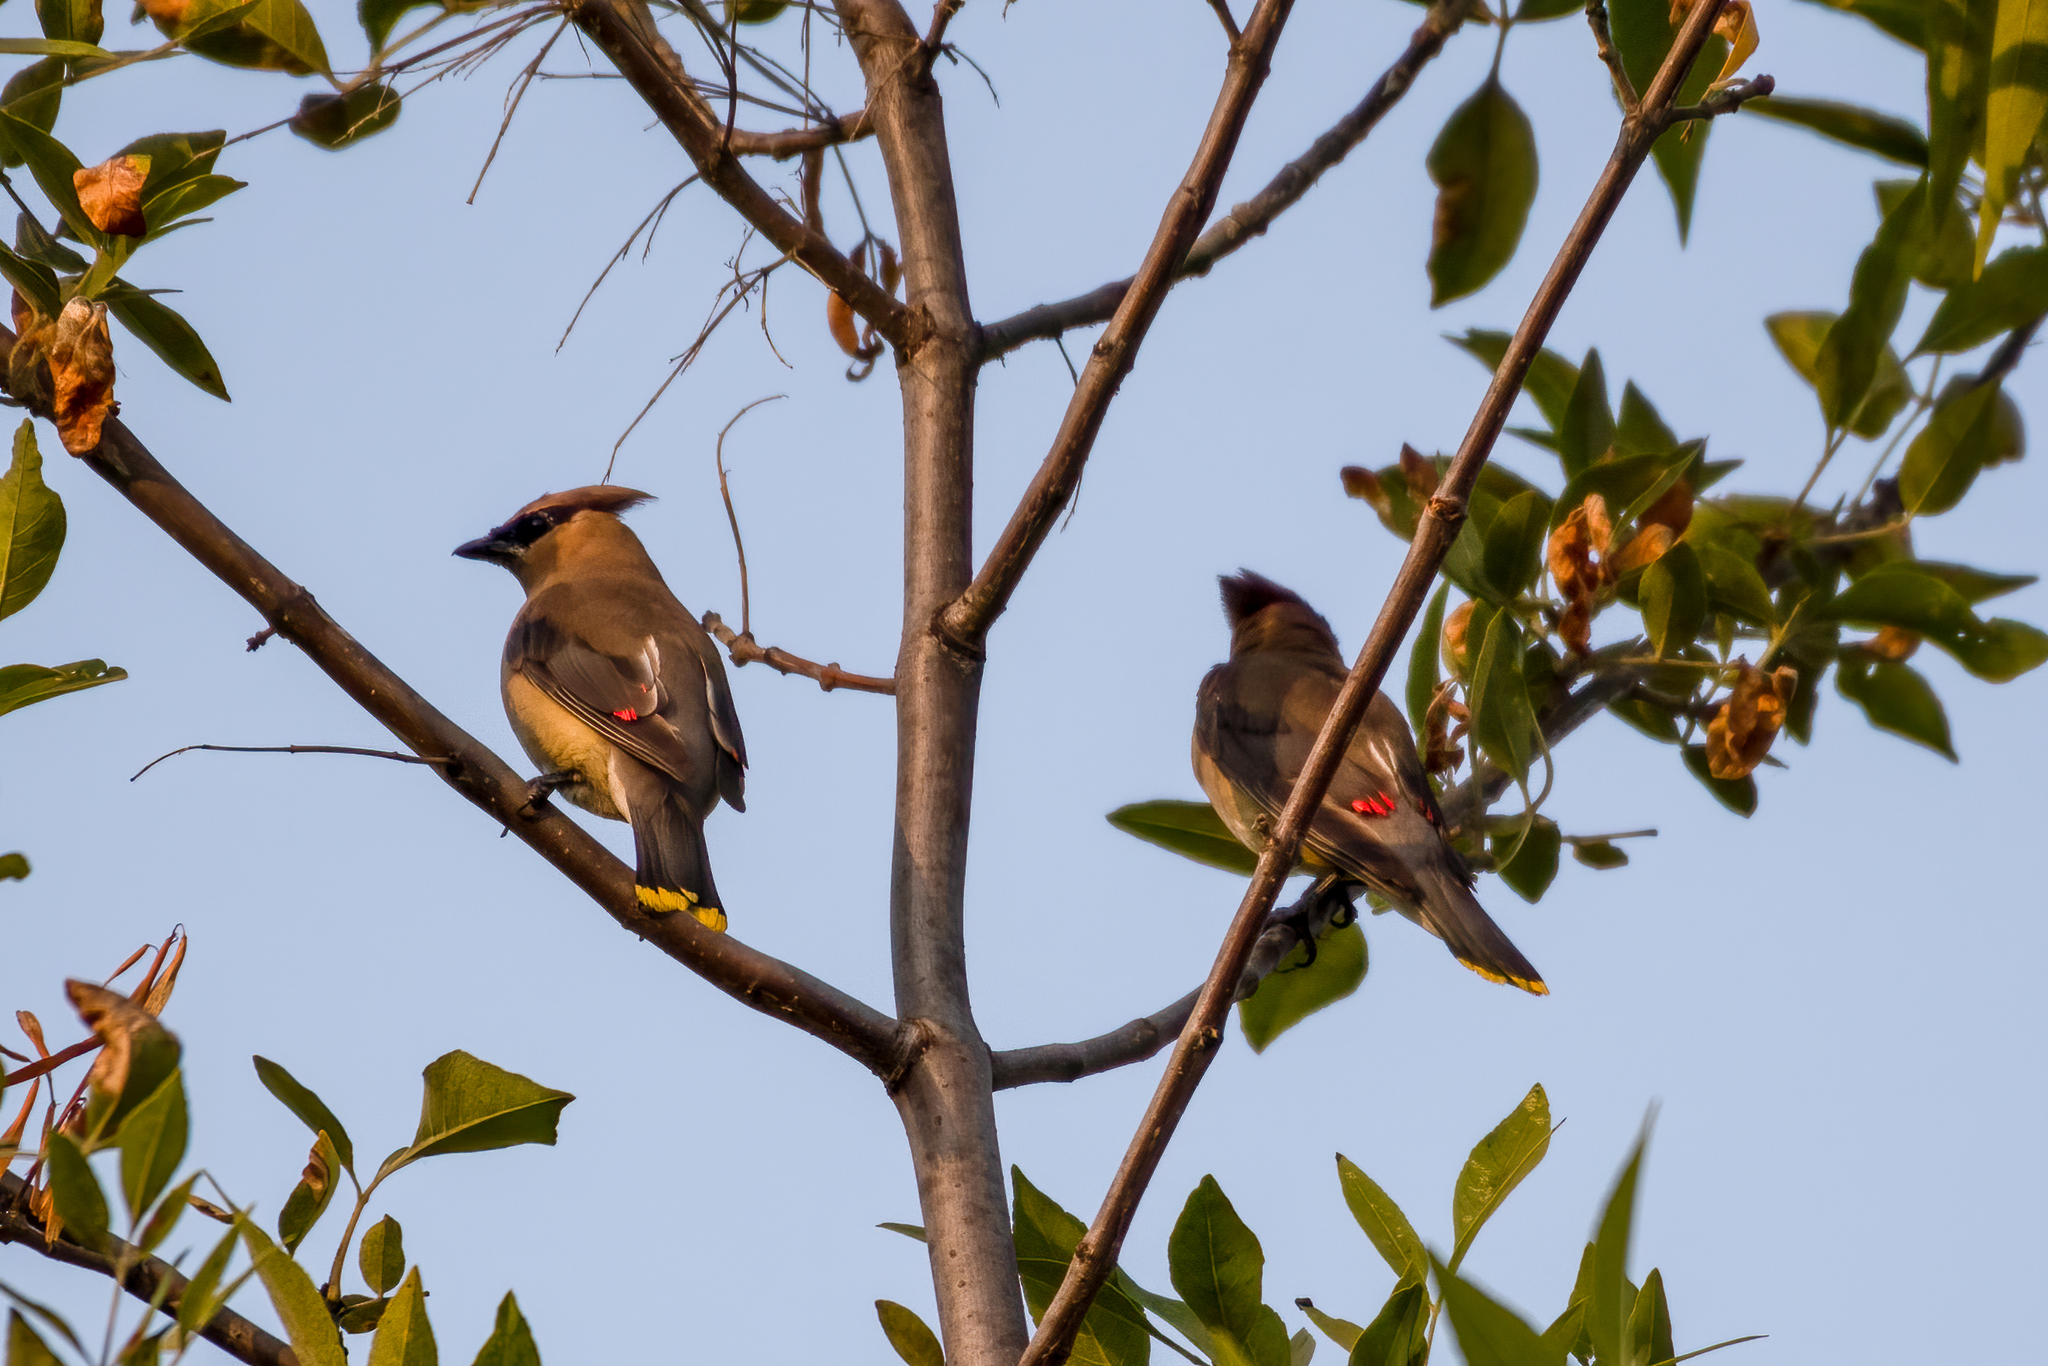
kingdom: Animalia
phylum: Chordata
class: Aves
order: Passeriformes
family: Bombycillidae
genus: Bombycilla
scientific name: Bombycilla cedrorum
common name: Cedar waxwing
